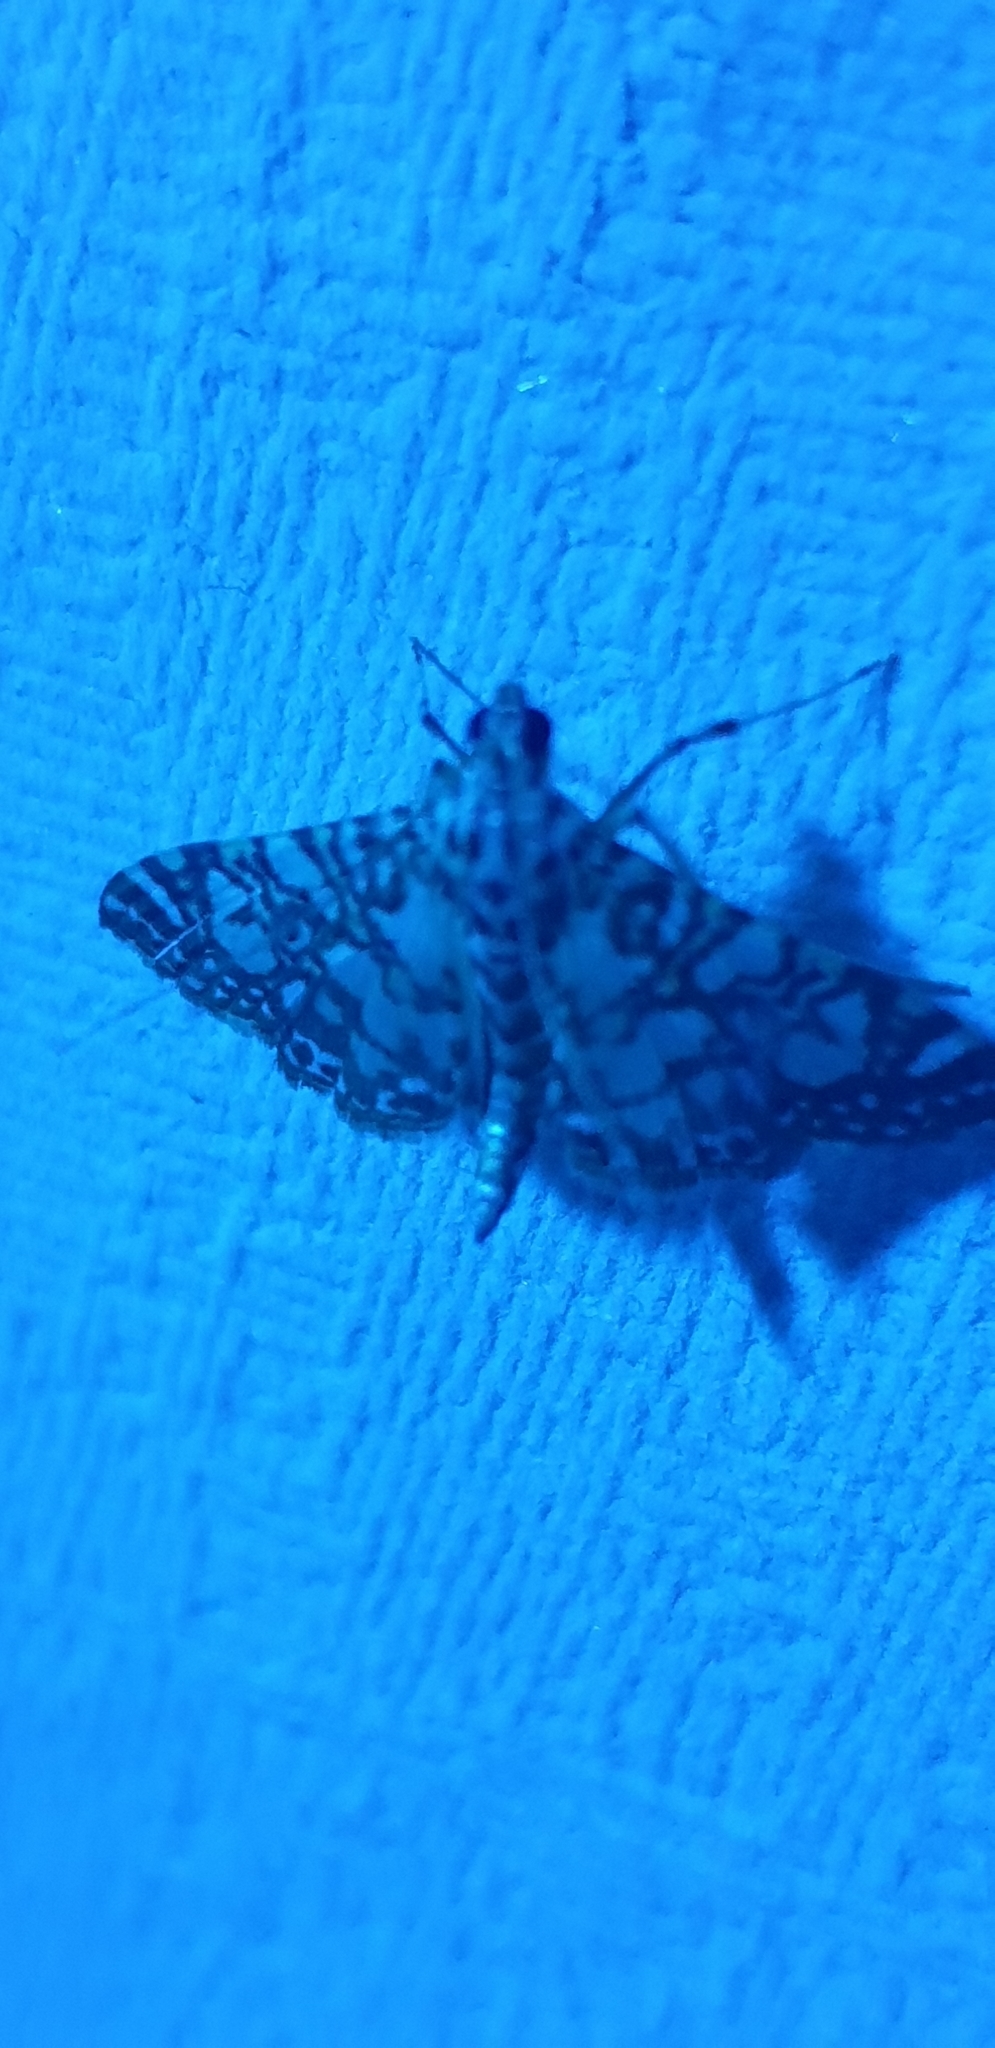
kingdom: Animalia
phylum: Arthropoda
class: Insecta
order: Lepidoptera
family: Crambidae
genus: Glyphodes
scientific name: Glyphodes onychinalis
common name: Swan plant moth
